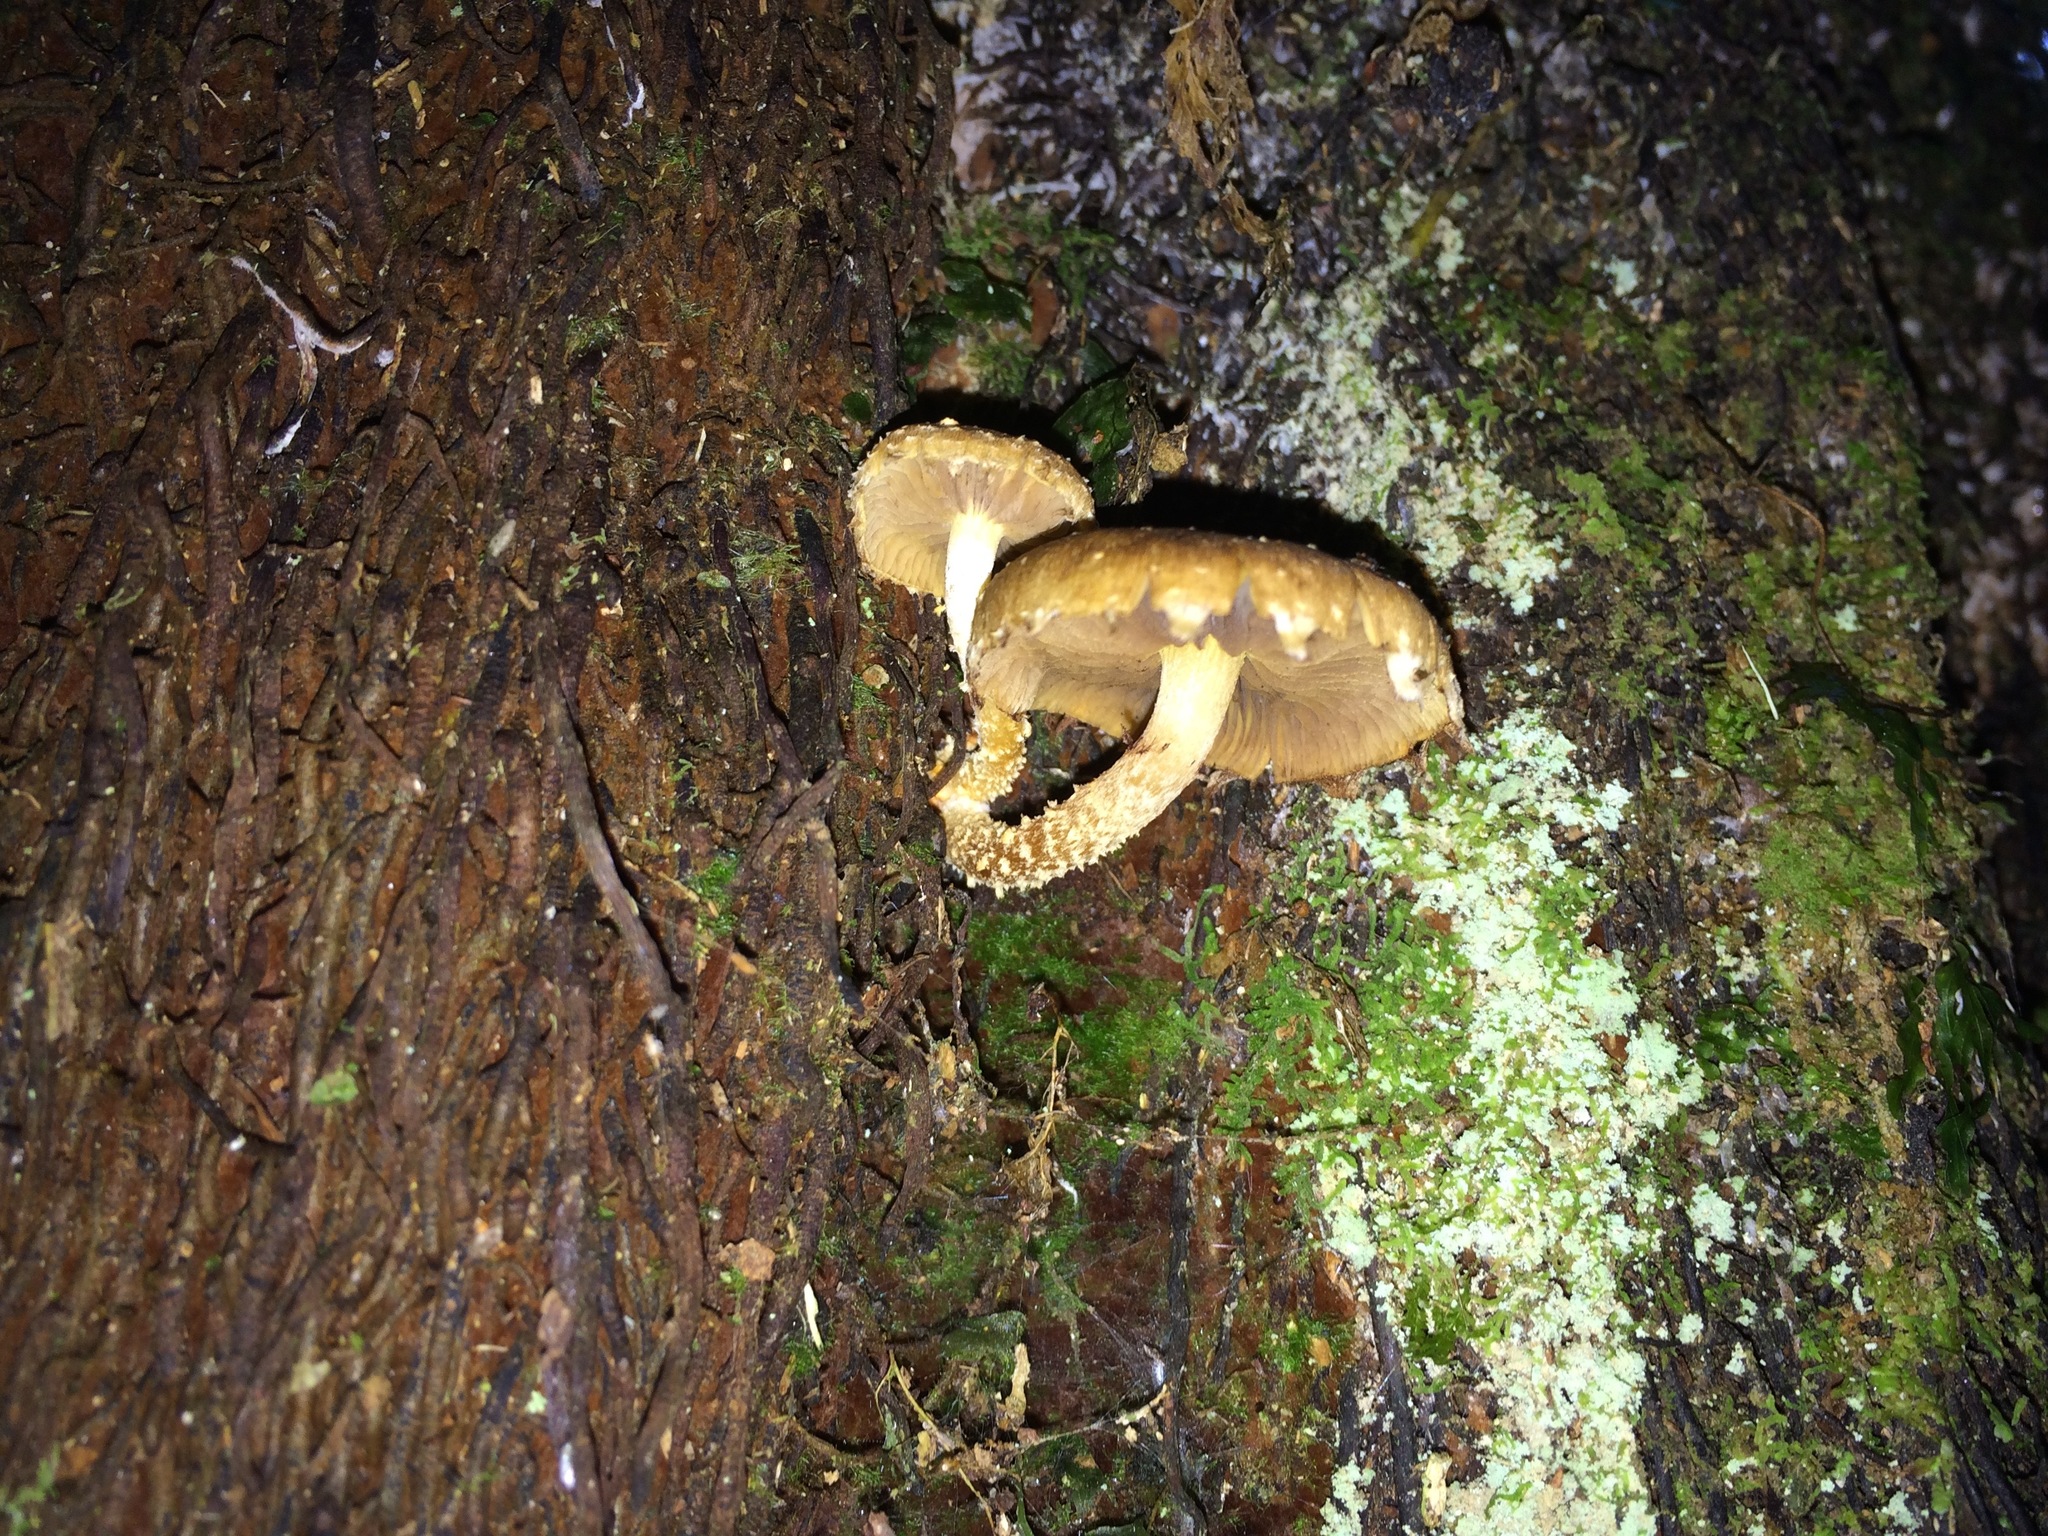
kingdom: Fungi
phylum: Basidiomycota
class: Agaricomycetes
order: Agaricales
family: Strophariaceae
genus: Pholiota
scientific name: Pholiota subflammans
